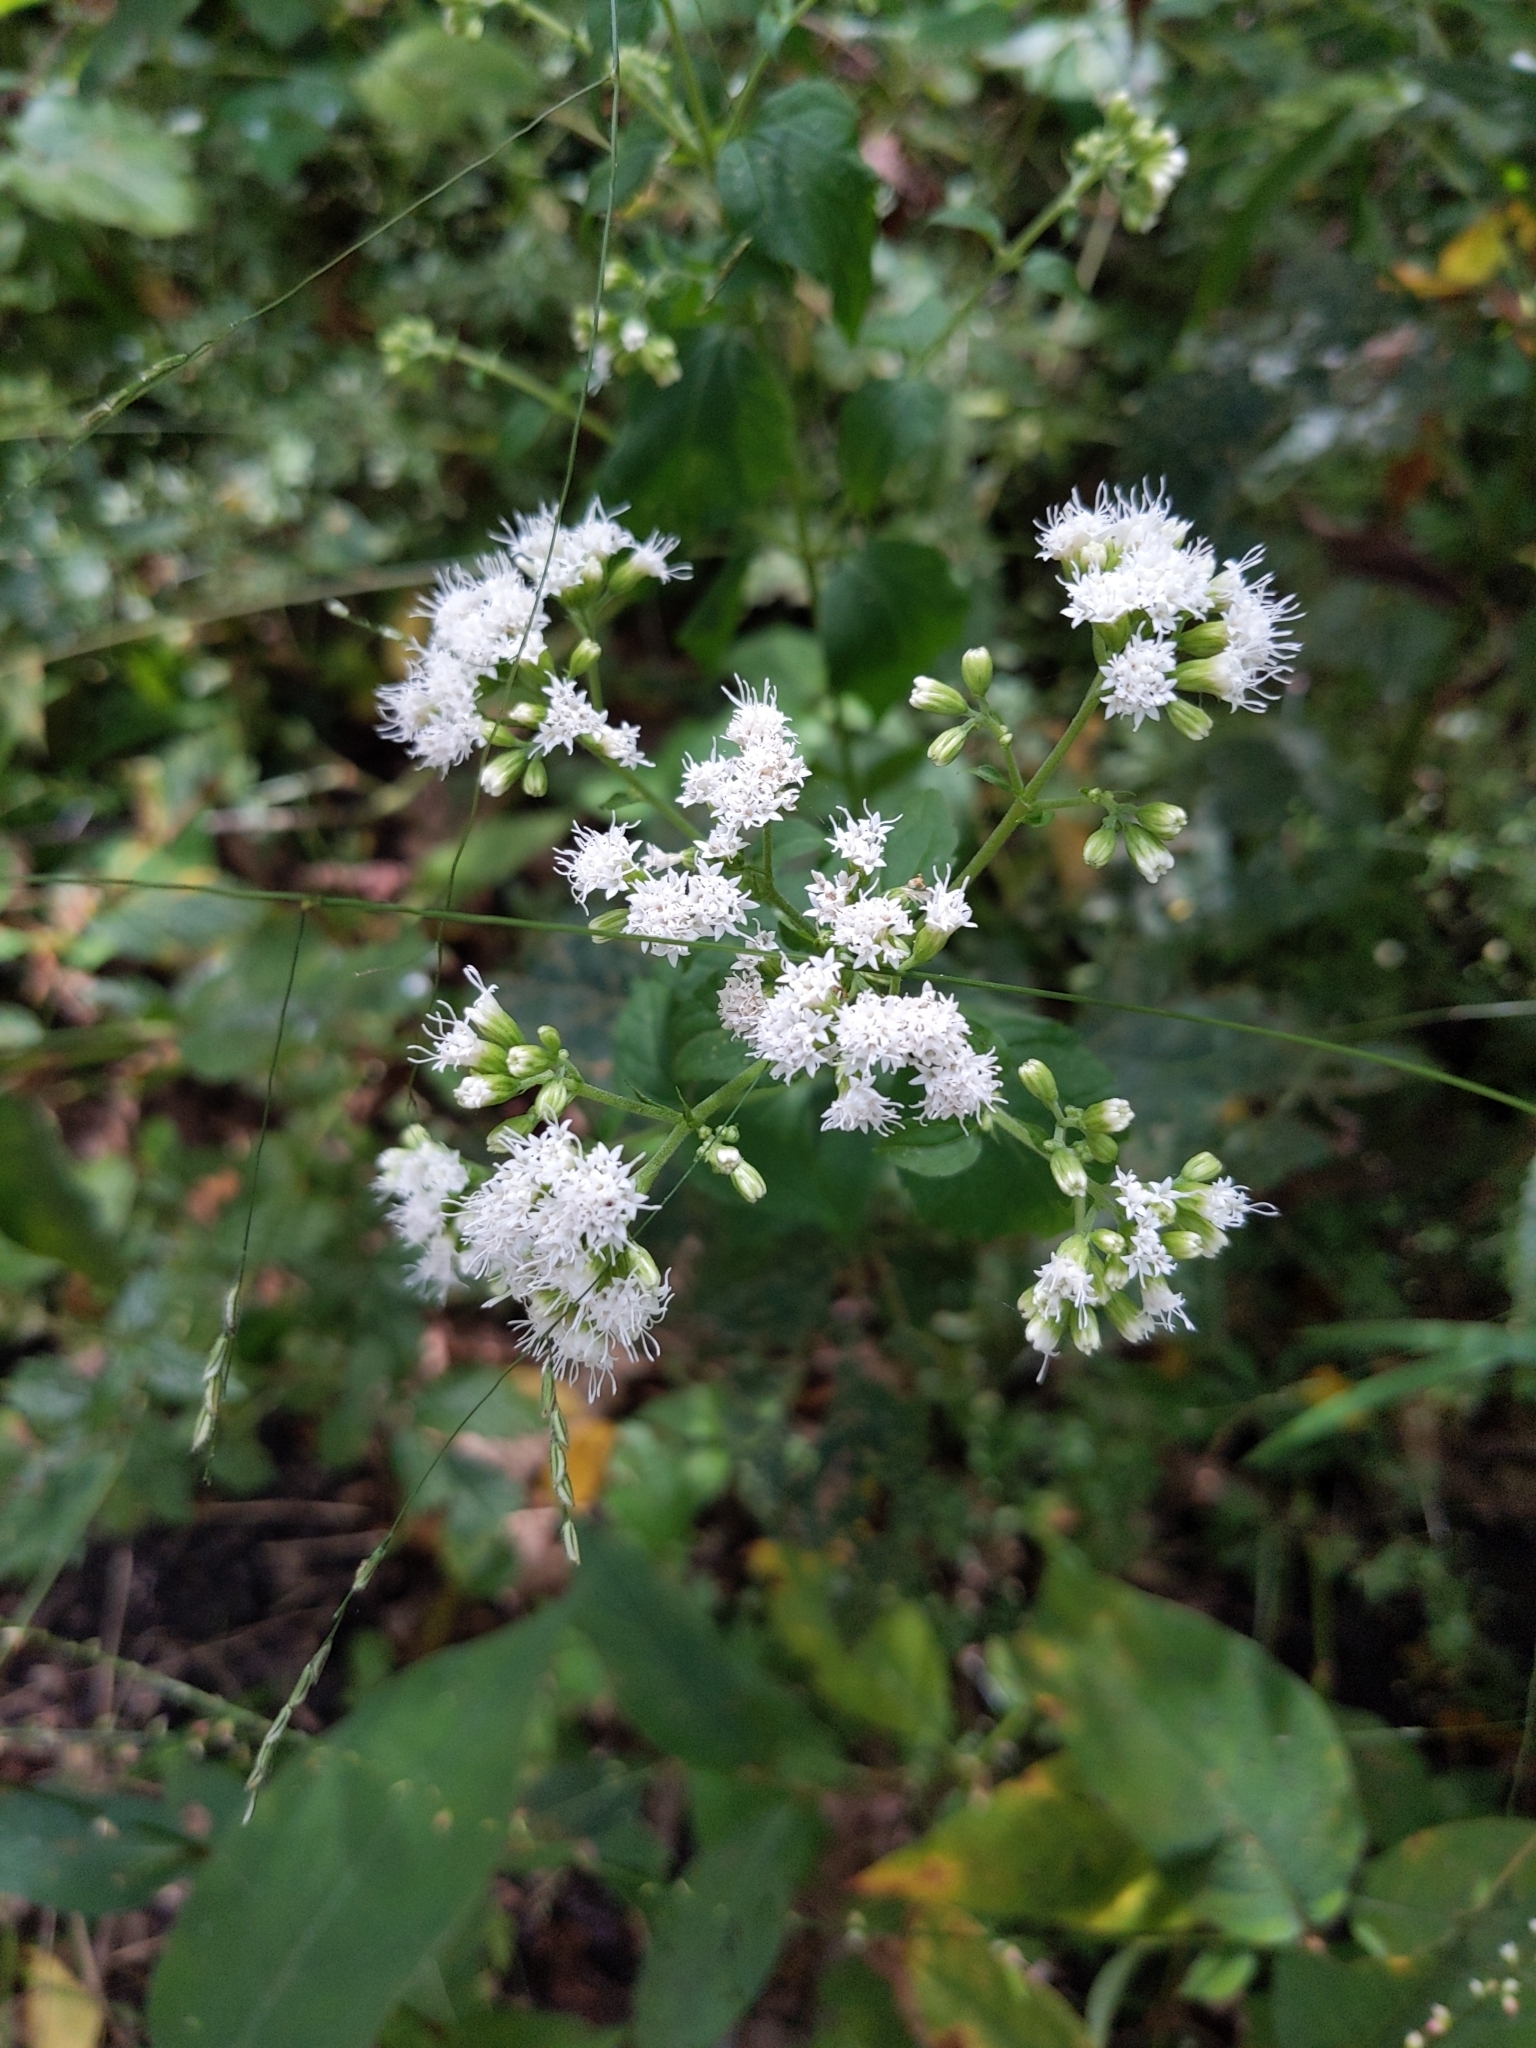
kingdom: Plantae
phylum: Tracheophyta
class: Magnoliopsida
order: Asterales
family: Asteraceae
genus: Ageratina
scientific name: Ageratina altissima
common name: White snakeroot
